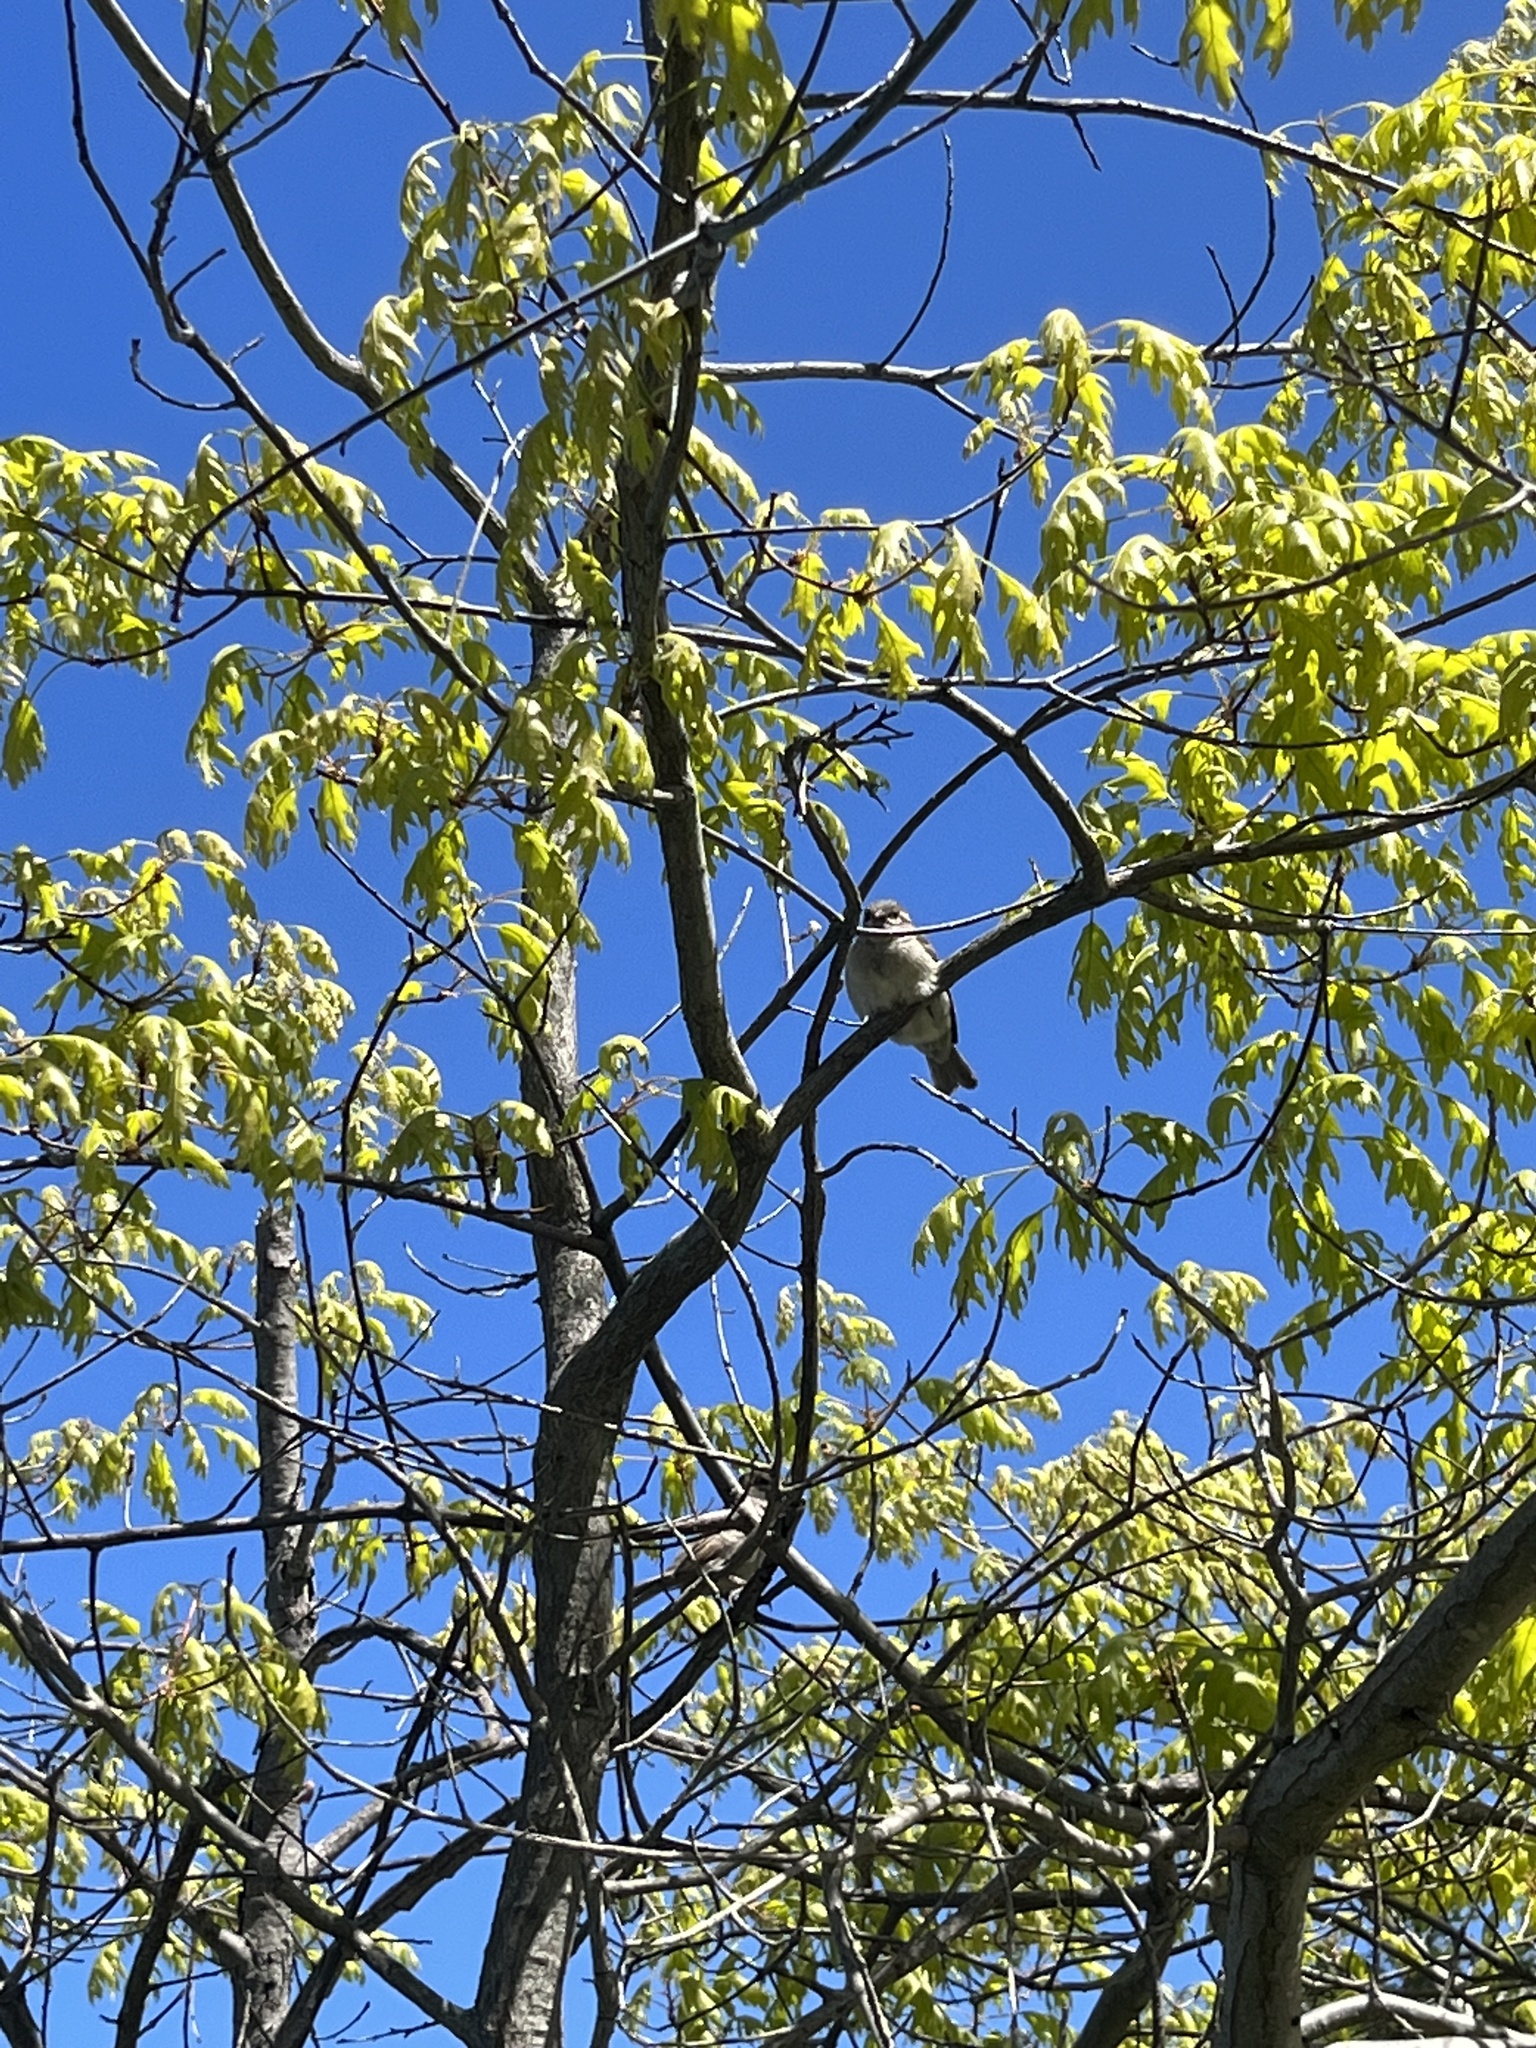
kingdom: Animalia
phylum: Chordata
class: Aves
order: Passeriformes
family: Passeridae
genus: Passer
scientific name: Passer domesticus
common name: House sparrow
